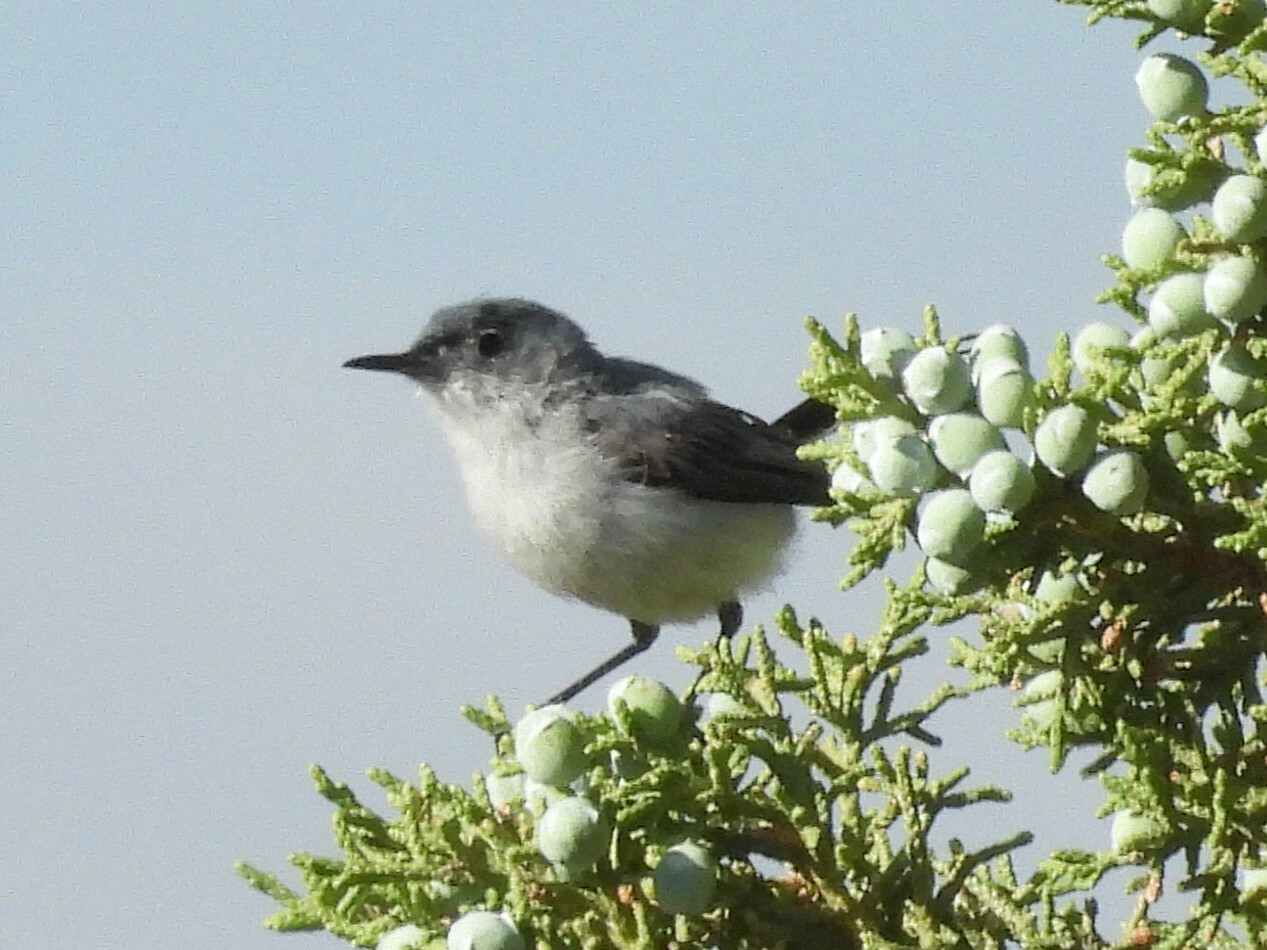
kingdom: Animalia
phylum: Chordata
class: Aves
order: Passeriformes
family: Polioptilidae
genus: Polioptila
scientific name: Polioptila caerulea
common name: Blue-gray gnatcatcher
